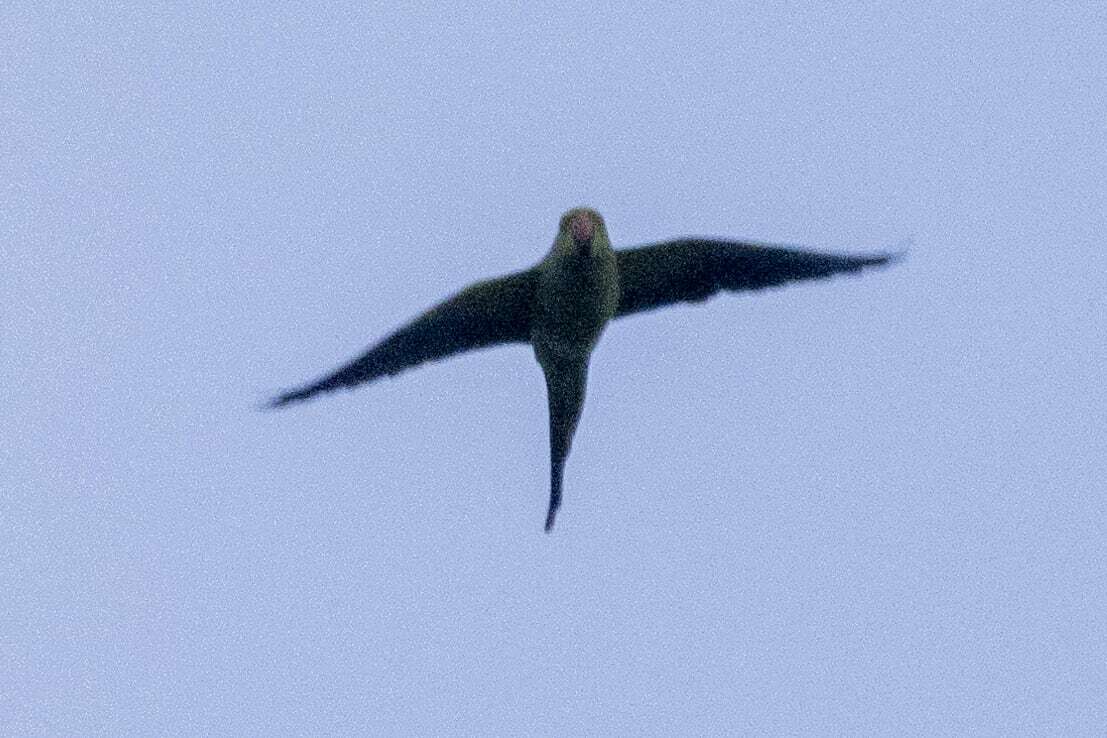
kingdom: Animalia
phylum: Chordata
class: Aves
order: Psittaciformes
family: Psittacidae
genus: Psittacula
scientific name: Psittacula krameri
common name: Rose-ringed parakeet
